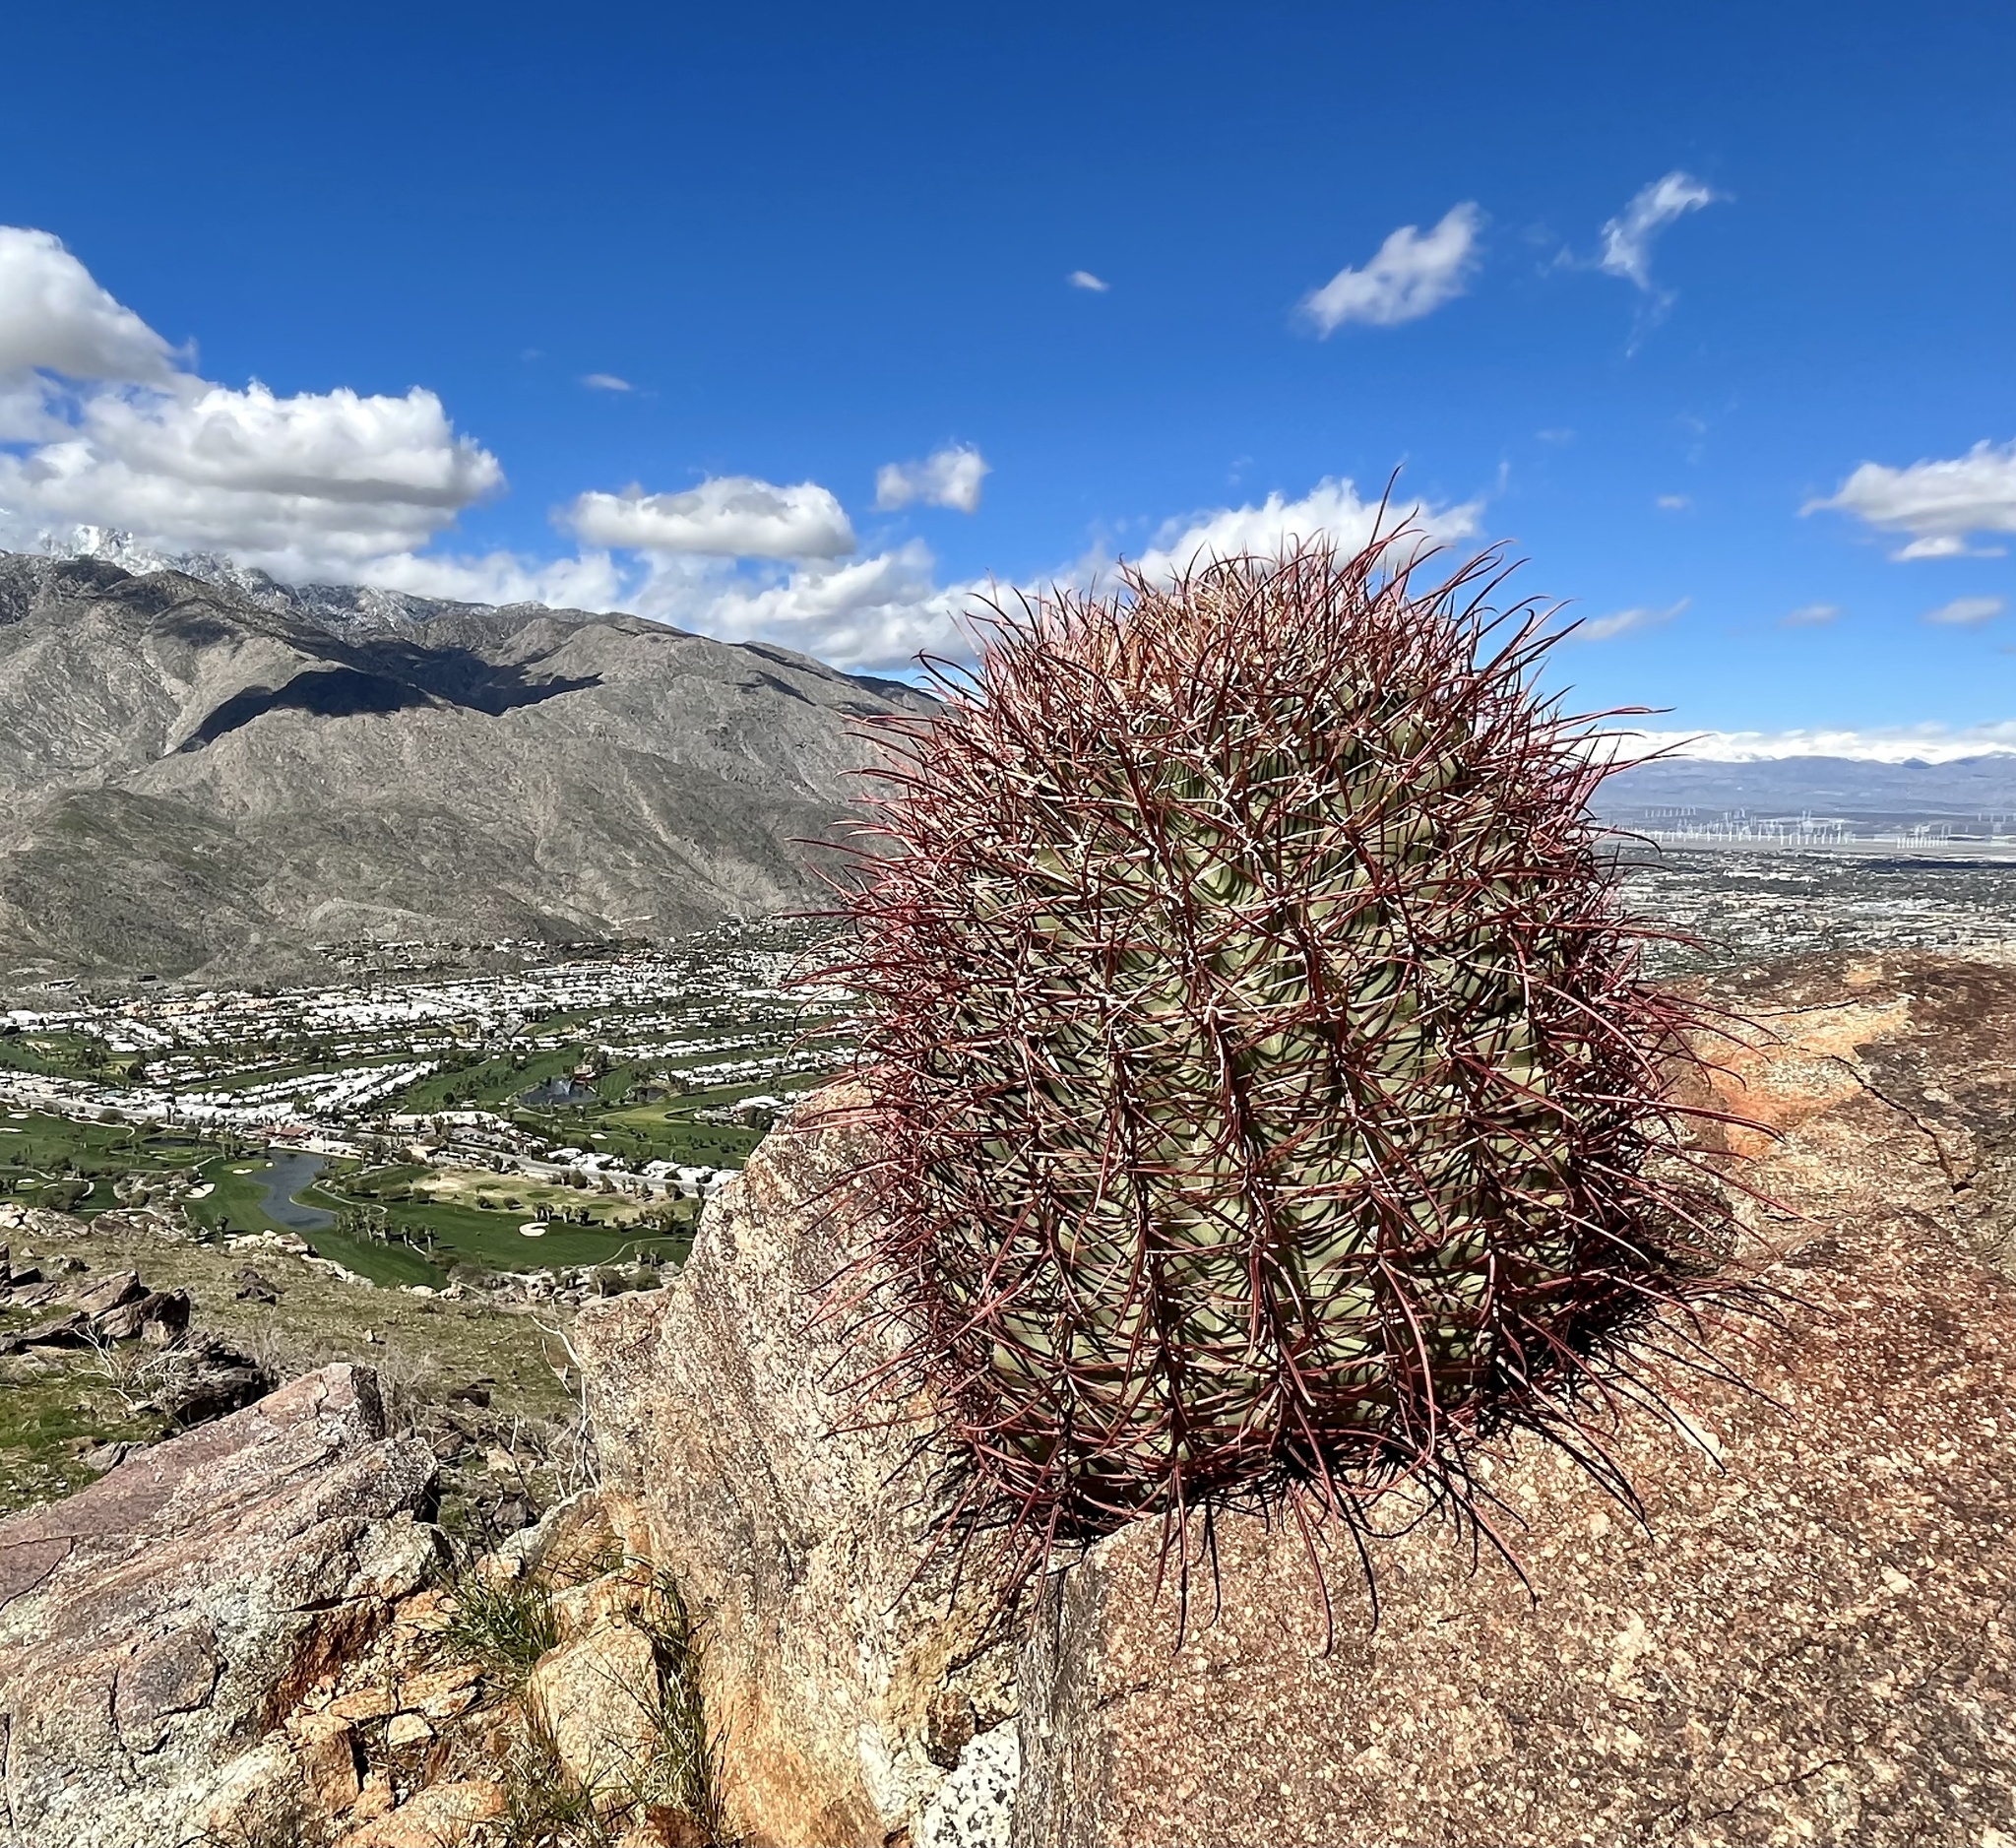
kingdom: Plantae
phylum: Tracheophyta
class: Magnoliopsida
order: Caryophyllales
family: Cactaceae
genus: Ferocactus
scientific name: Ferocactus cylindraceus
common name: California barrel cactus
